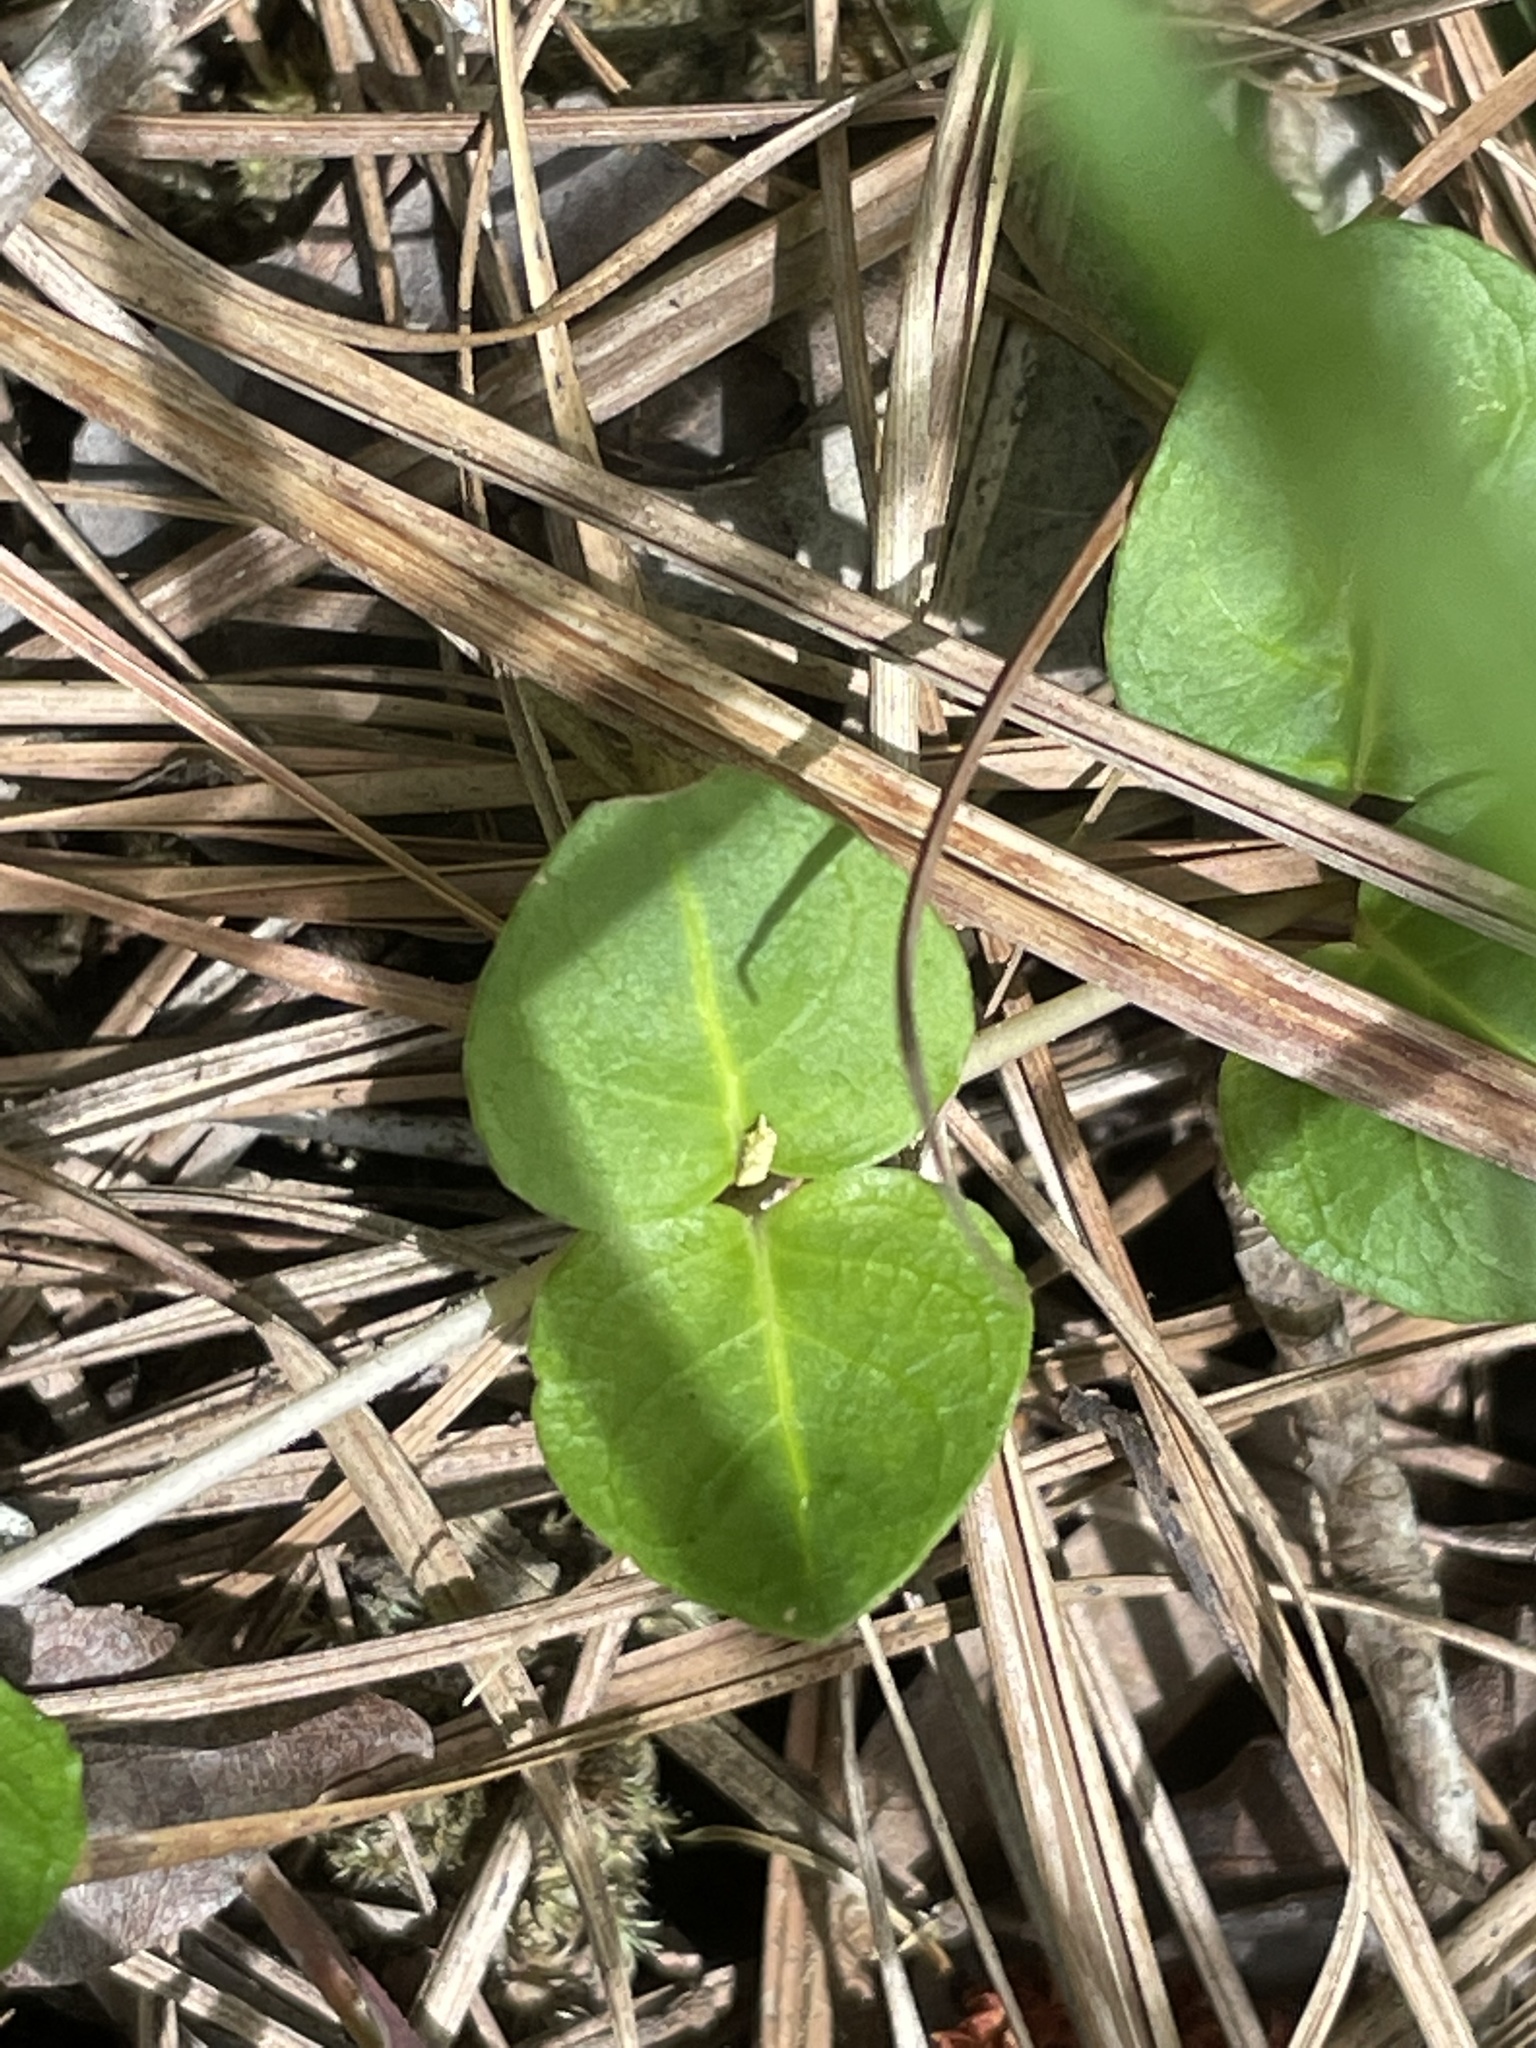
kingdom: Plantae
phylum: Tracheophyta
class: Magnoliopsida
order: Gentianales
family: Rubiaceae
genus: Mitchella
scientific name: Mitchella repens
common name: Partridge-berry
